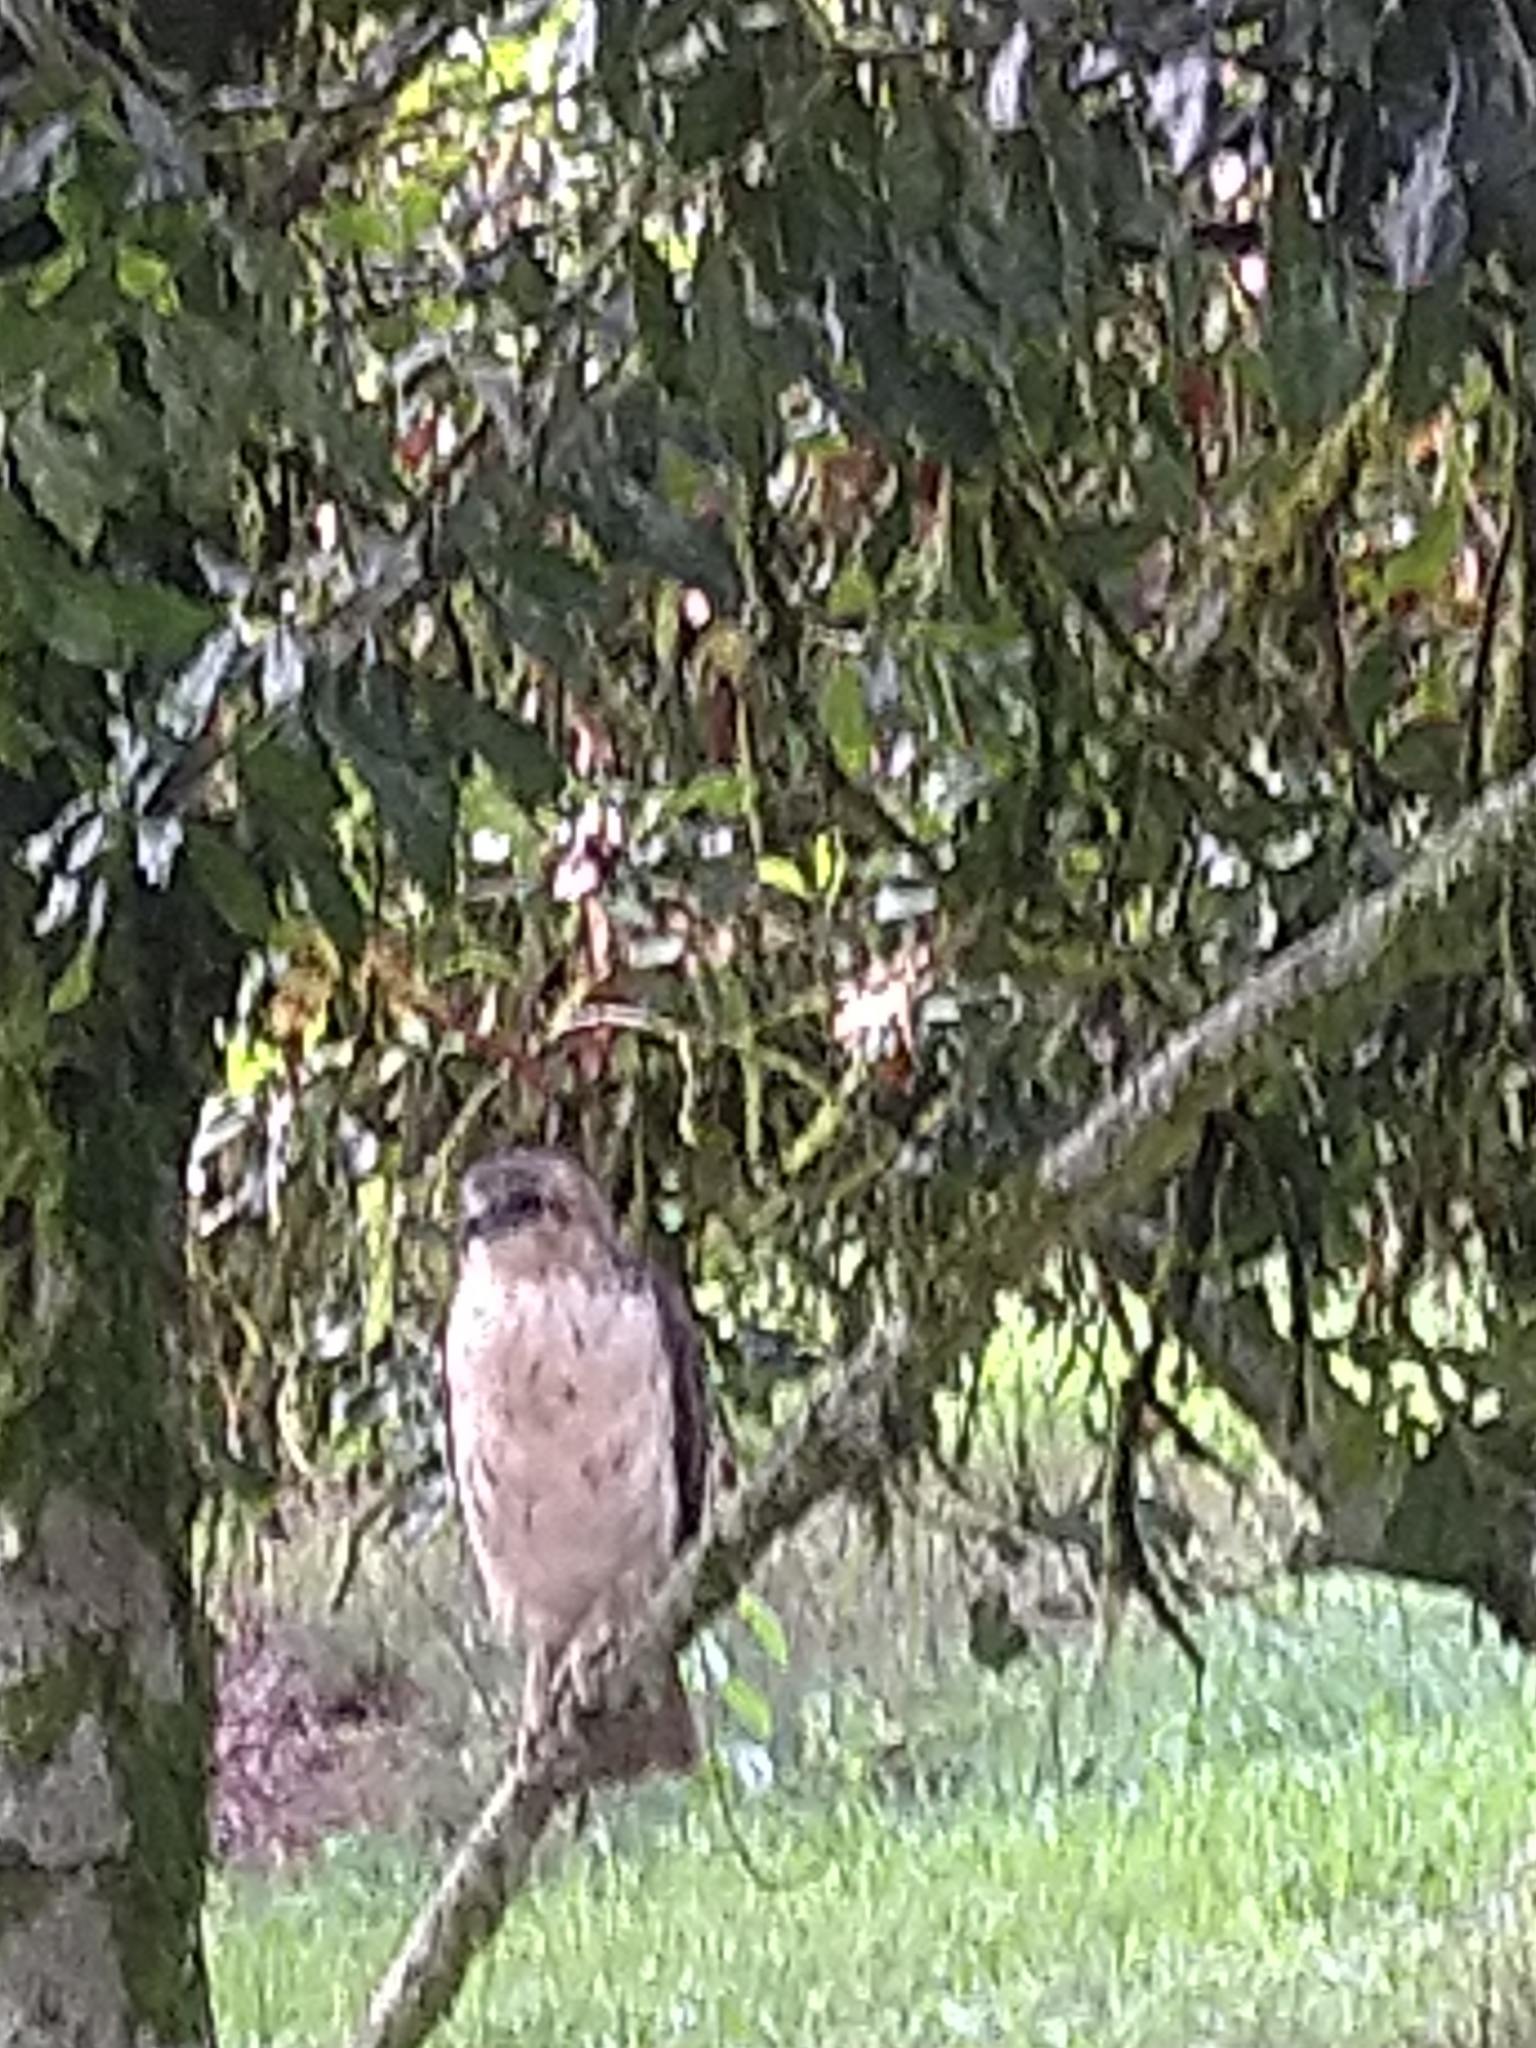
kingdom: Animalia
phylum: Chordata
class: Aves
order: Accipitriformes
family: Accipitridae
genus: Buteo
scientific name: Buteo solitarius
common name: Hawaiian hawk
